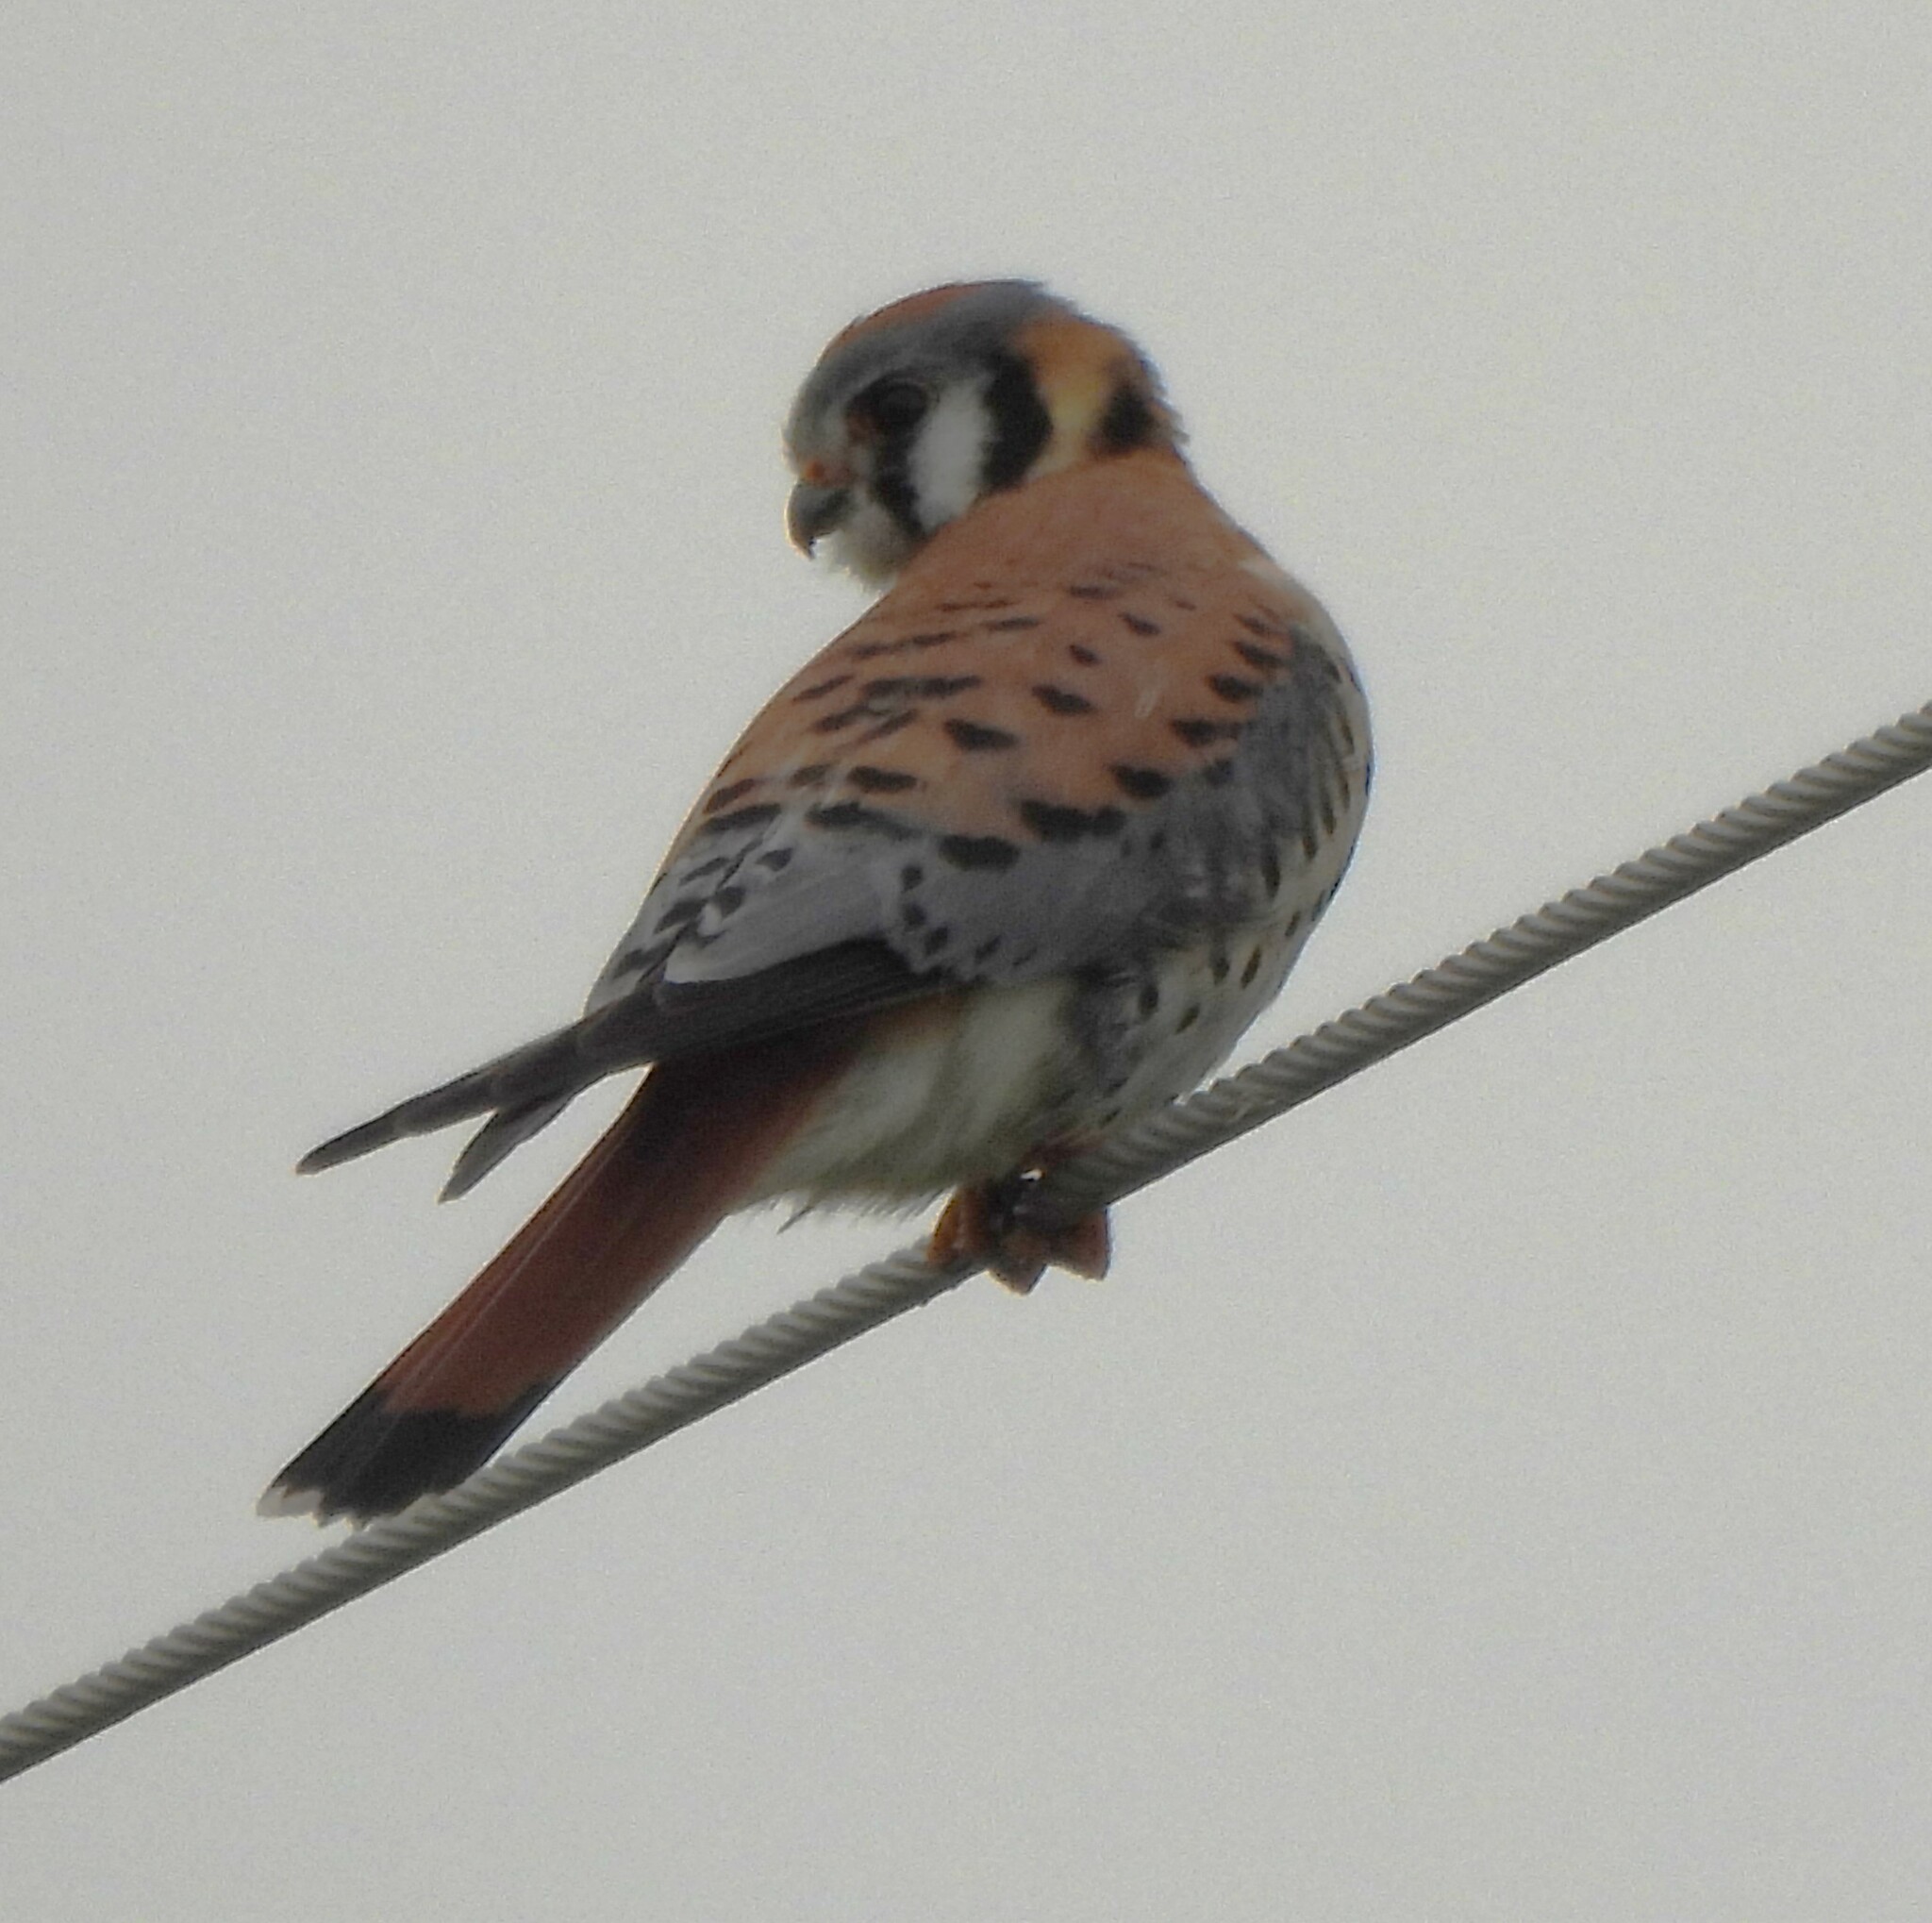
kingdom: Animalia
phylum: Chordata
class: Aves
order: Falconiformes
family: Falconidae
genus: Falco
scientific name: Falco sparverius
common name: American kestrel
